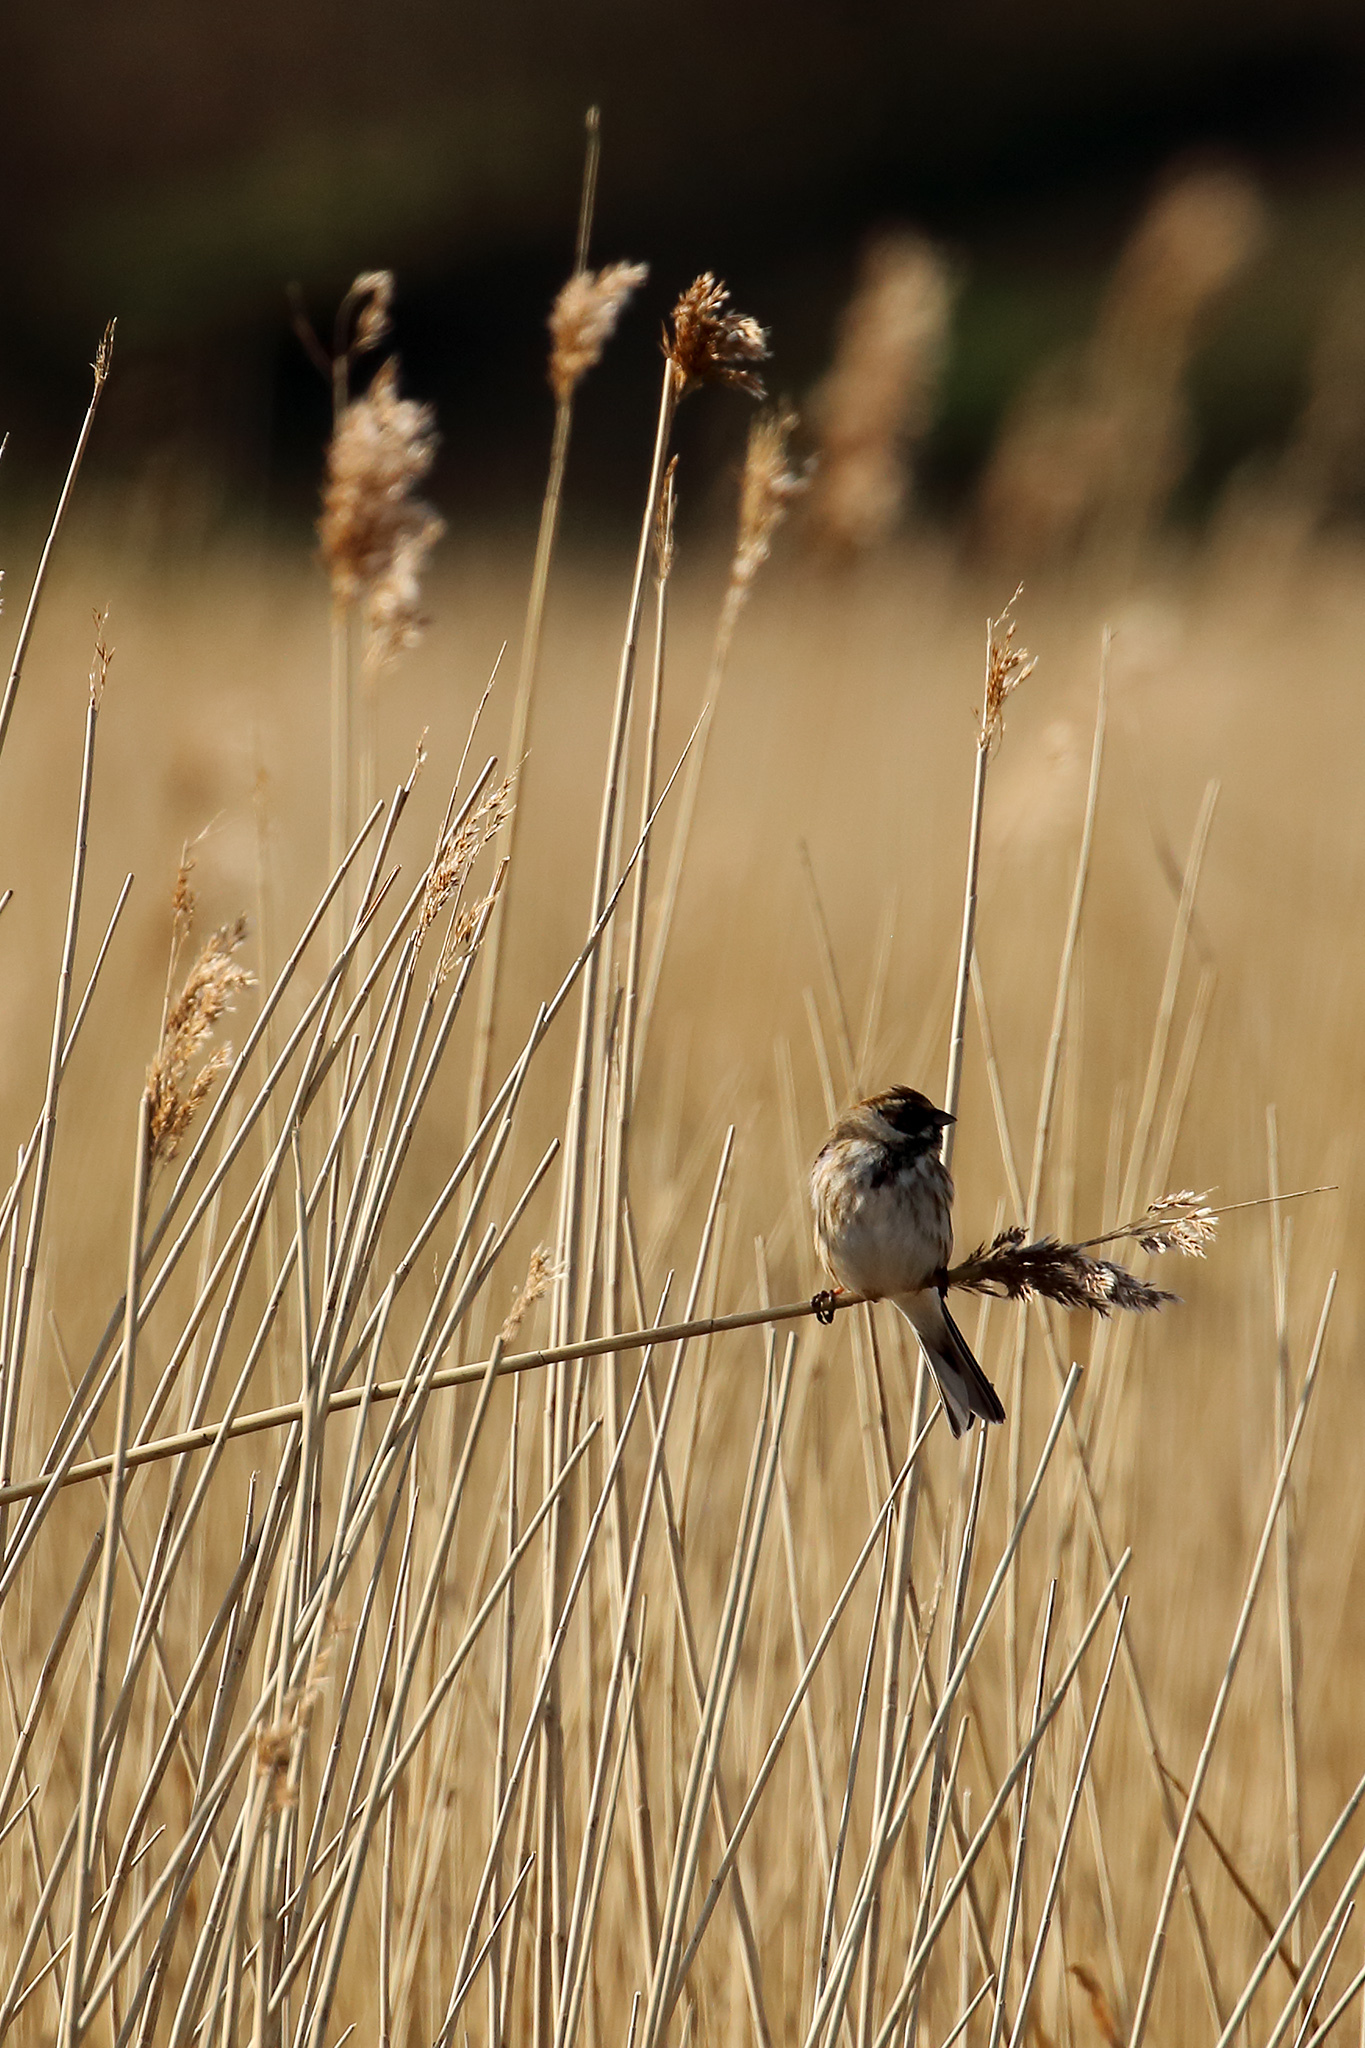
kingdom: Animalia
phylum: Chordata
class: Aves
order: Passeriformes
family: Emberizidae
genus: Emberiza
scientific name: Emberiza schoeniclus
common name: Reed bunting
